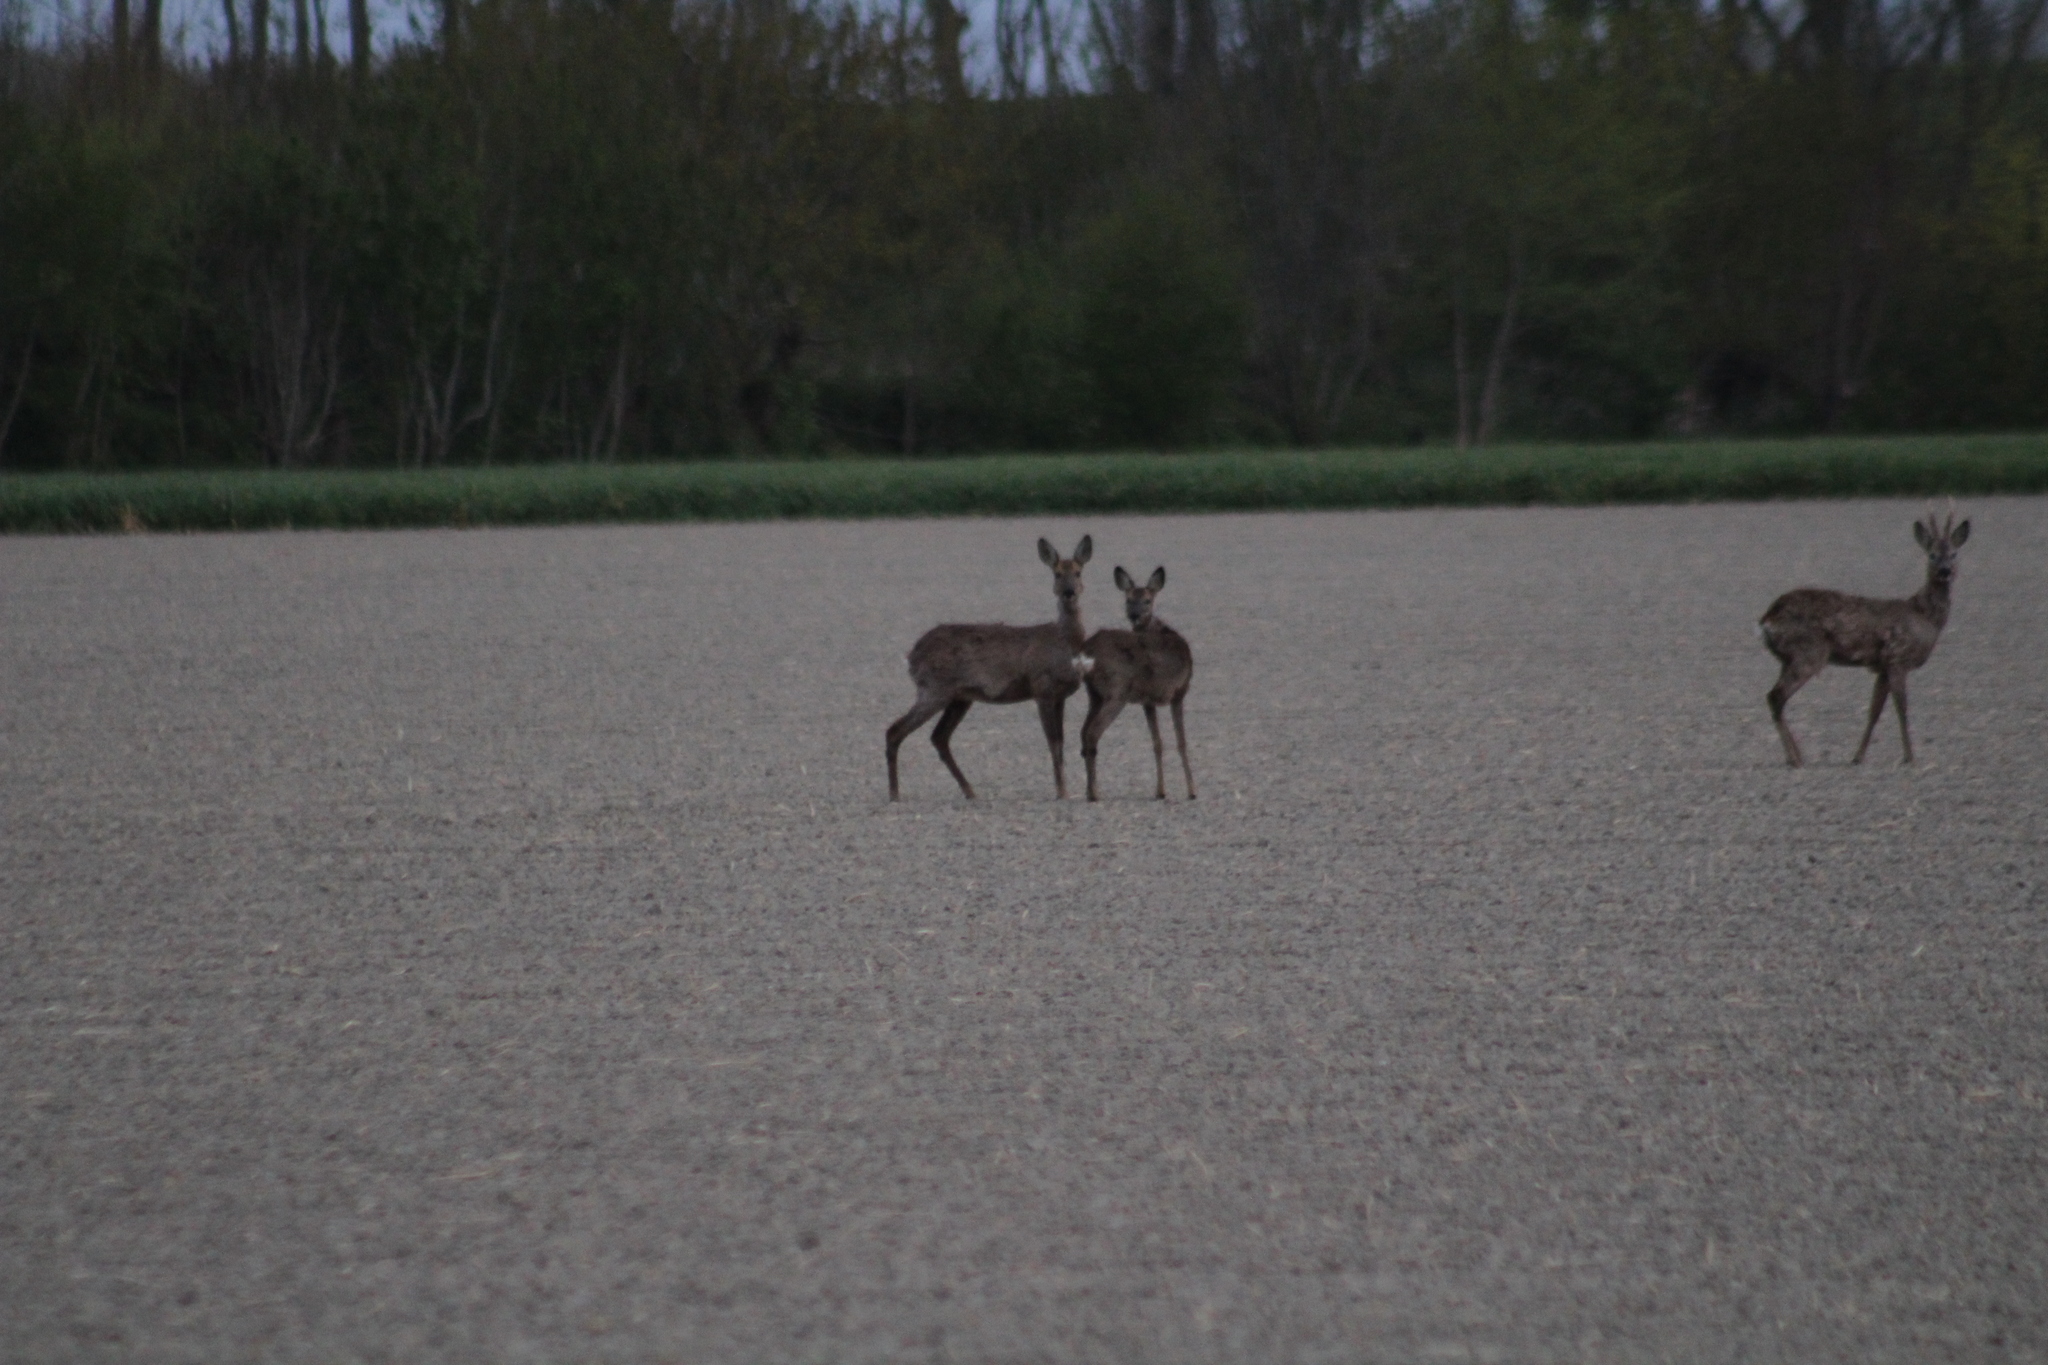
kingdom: Animalia
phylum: Chordata
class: Mammalia
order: Artiodactyla
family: Cervidae
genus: Capreolus
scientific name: Capreolus capreolus
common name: Western roe deer
